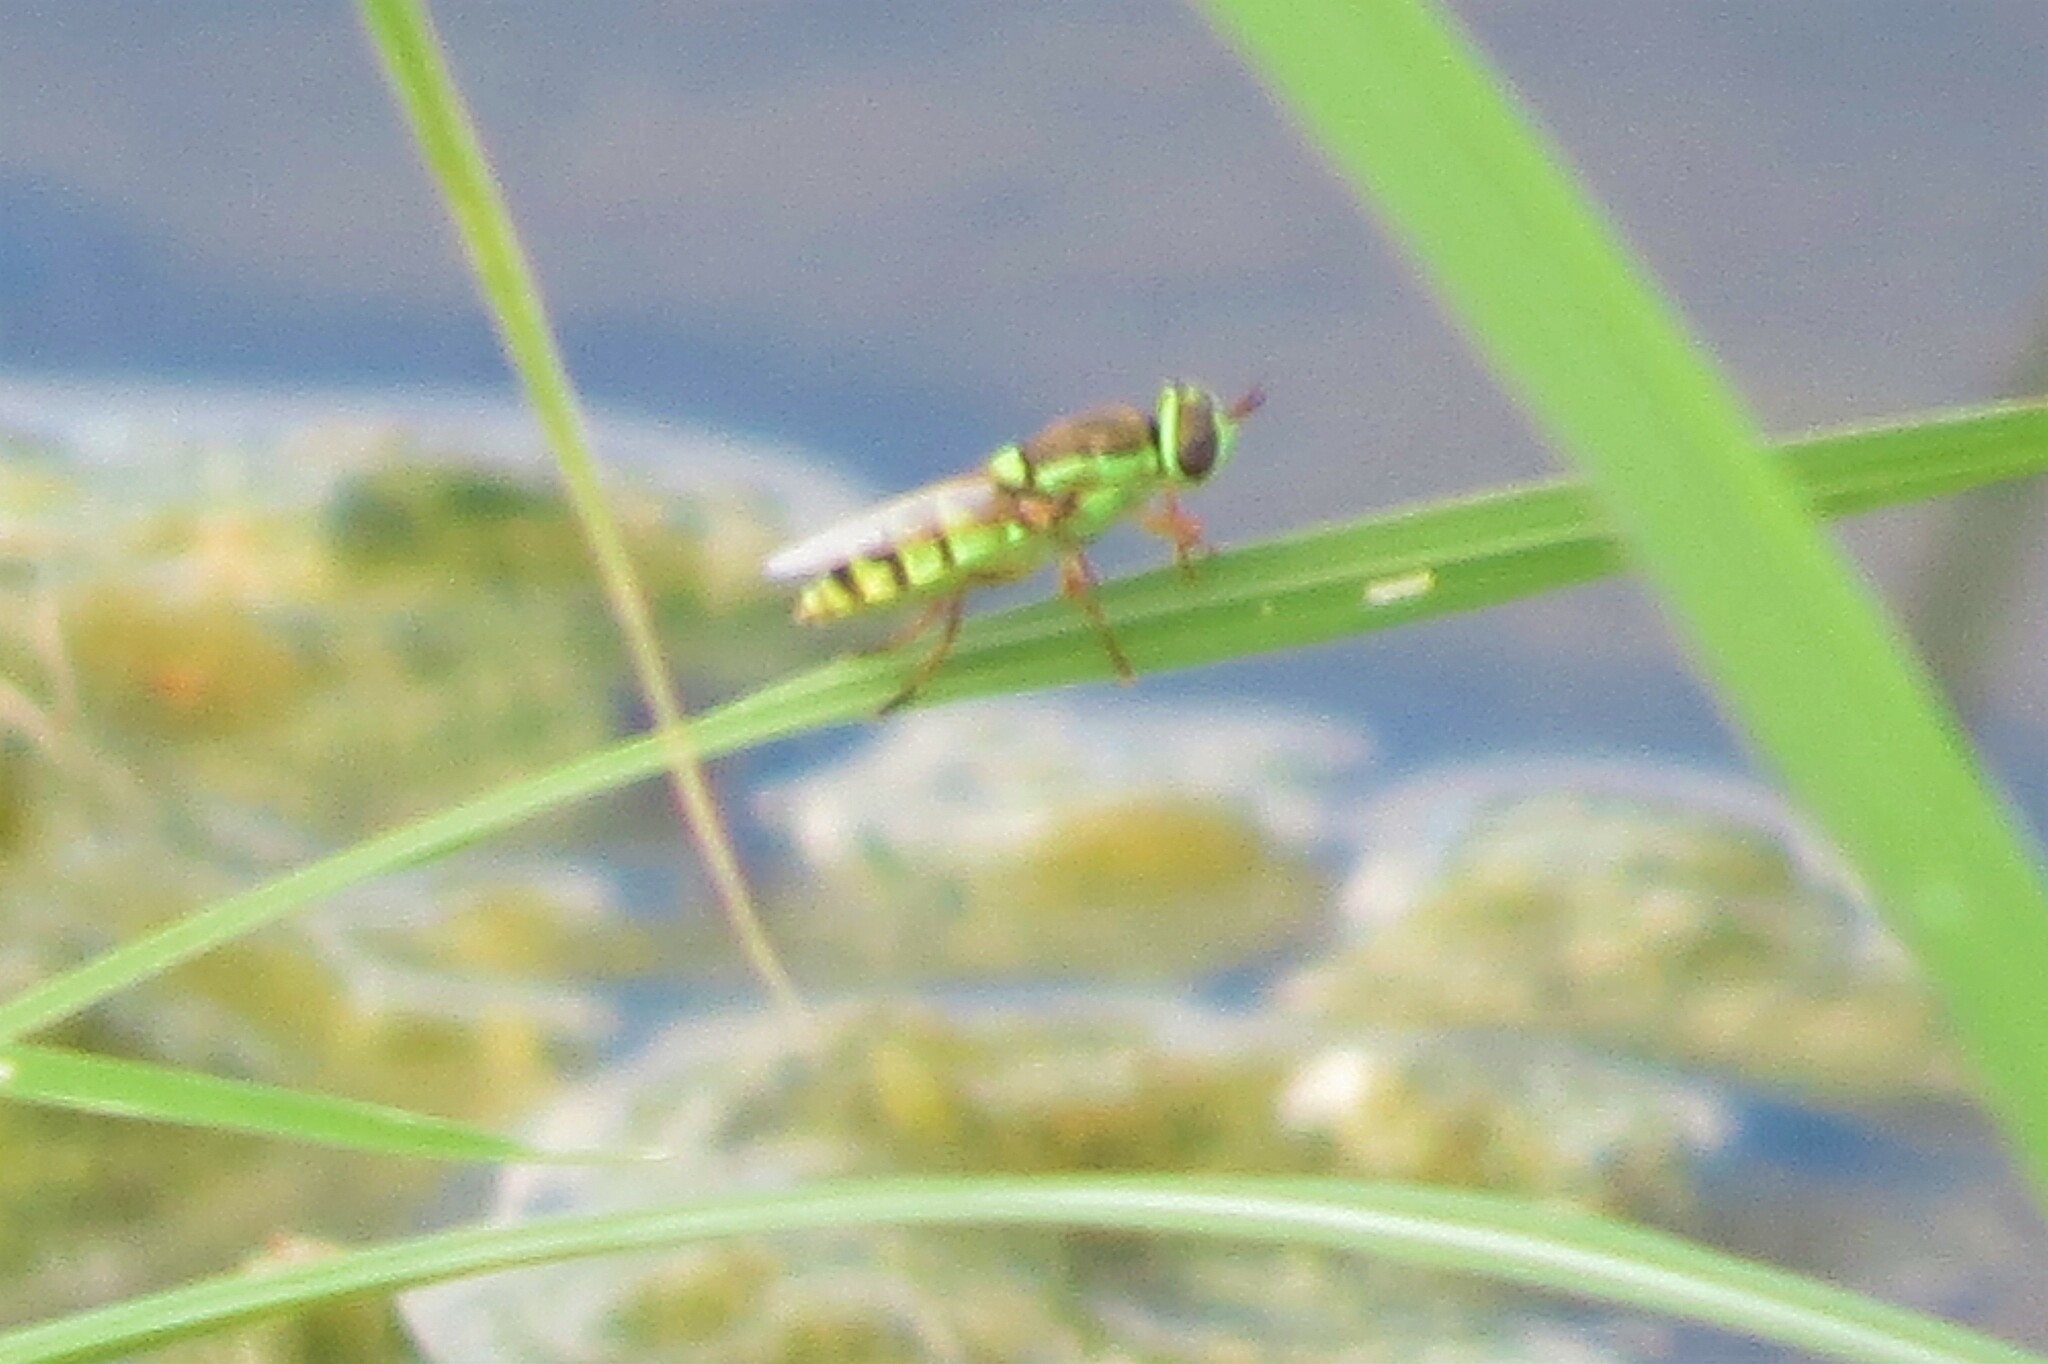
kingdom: Animalia
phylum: Arthropoda
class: Insecta
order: Diptera
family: Stratiomyidae
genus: Odontomyia
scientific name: Odontomyia cincta
